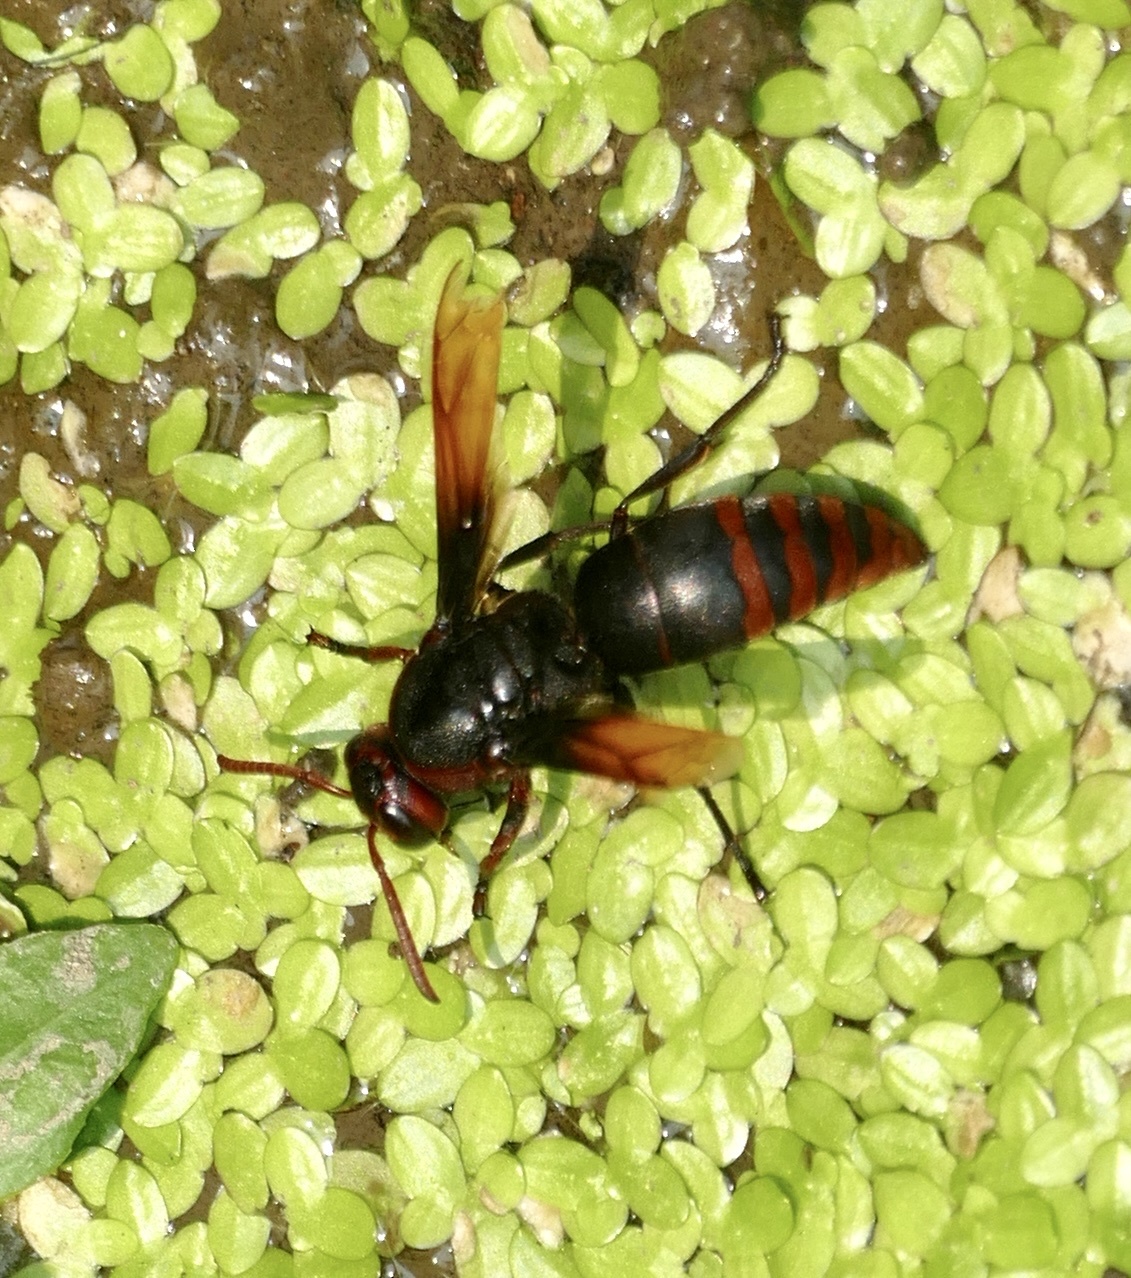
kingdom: Animalia
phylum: Arthropoda
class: Insecta
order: Hymenoptera
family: Eumenidae
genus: Rhynchium
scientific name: Rhynchium haemorrhoidale
